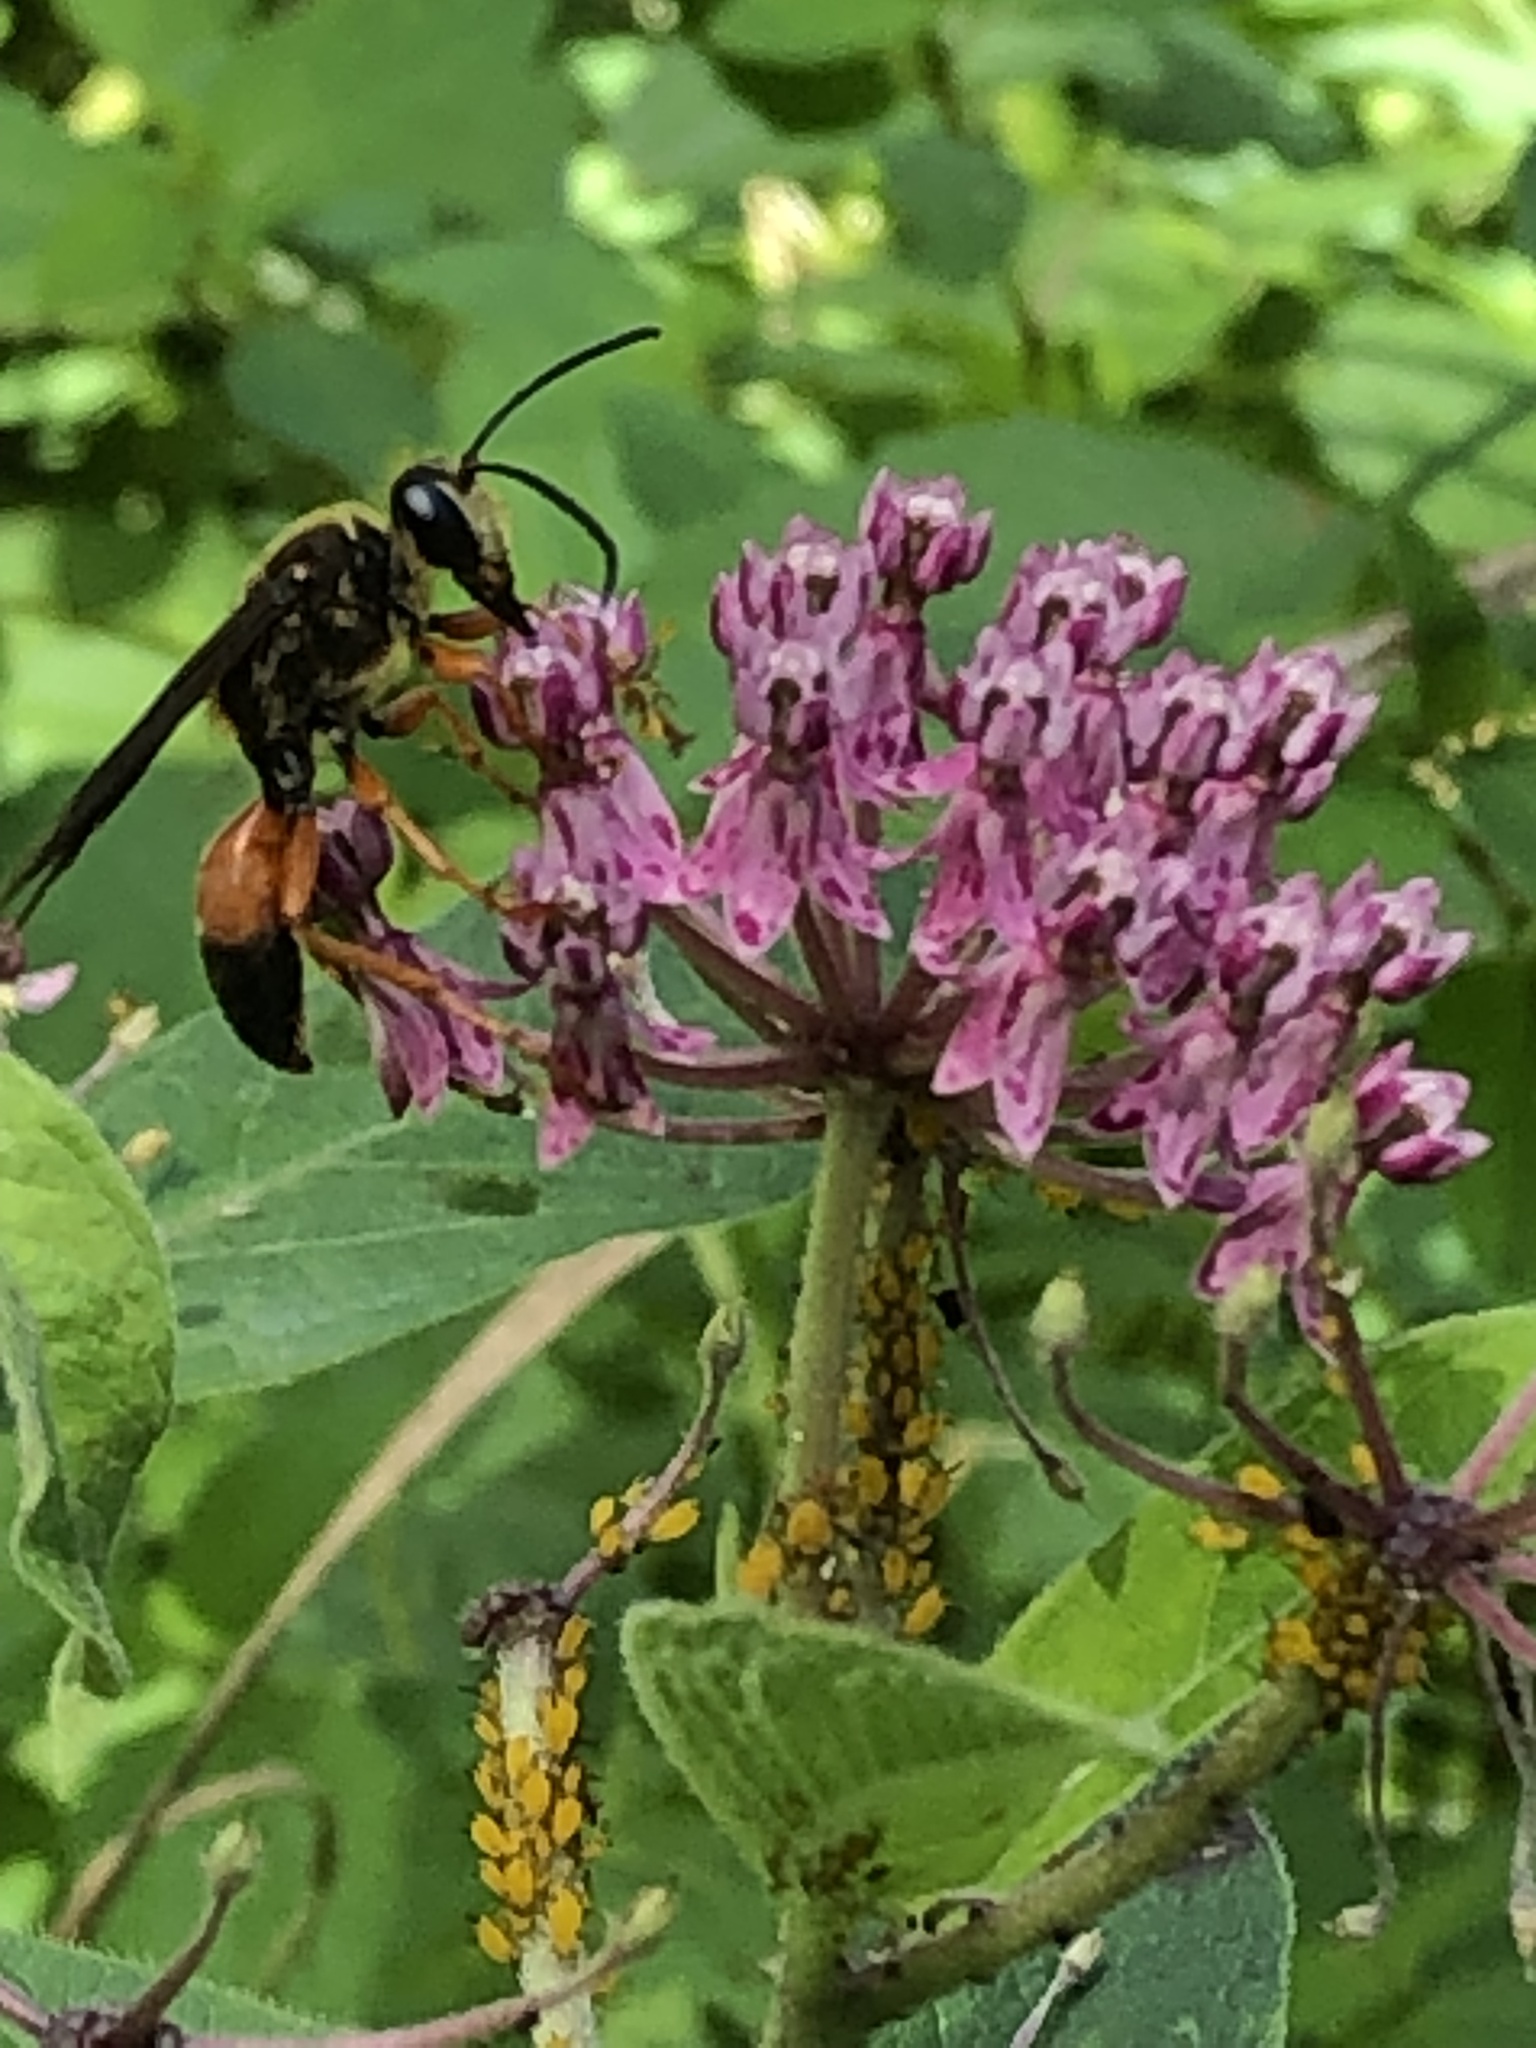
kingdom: Animalia
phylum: Arthropoda
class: Insecta
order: Hymenoptera
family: Sphecidae
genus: Sphex
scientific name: Sphex ichneumoneus
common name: Great golden digger wasp
